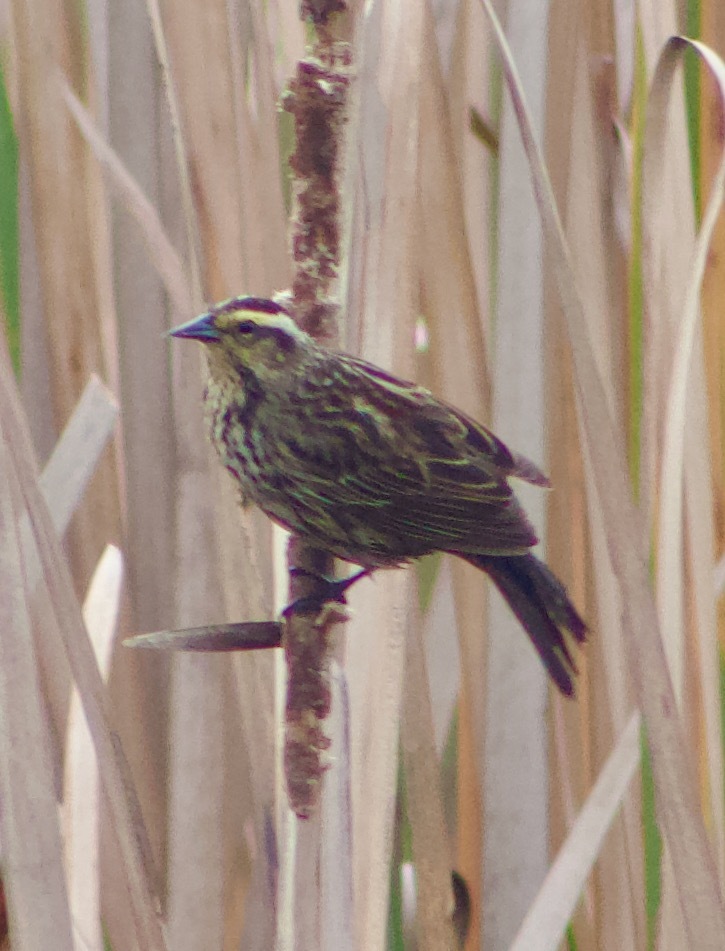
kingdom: Animalia
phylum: Chordata
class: Aves
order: Passeriformes
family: Icteridae
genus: Agelasticus
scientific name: Agelasticus thilius
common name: Yellow-winged blackbird
